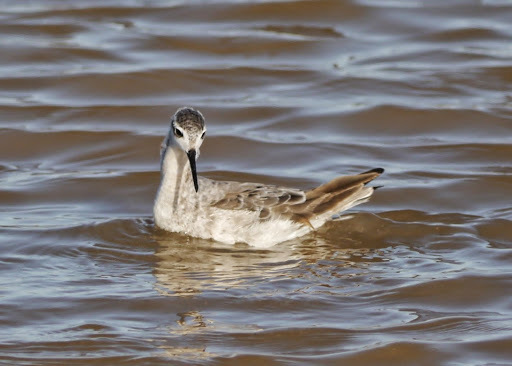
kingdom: Animalia
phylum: Chordata
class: Aves
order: Charadriiformes
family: Scolopacidae
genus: Phalaropus
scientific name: Phalaropus tricolor
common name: Wilson's phalarope
